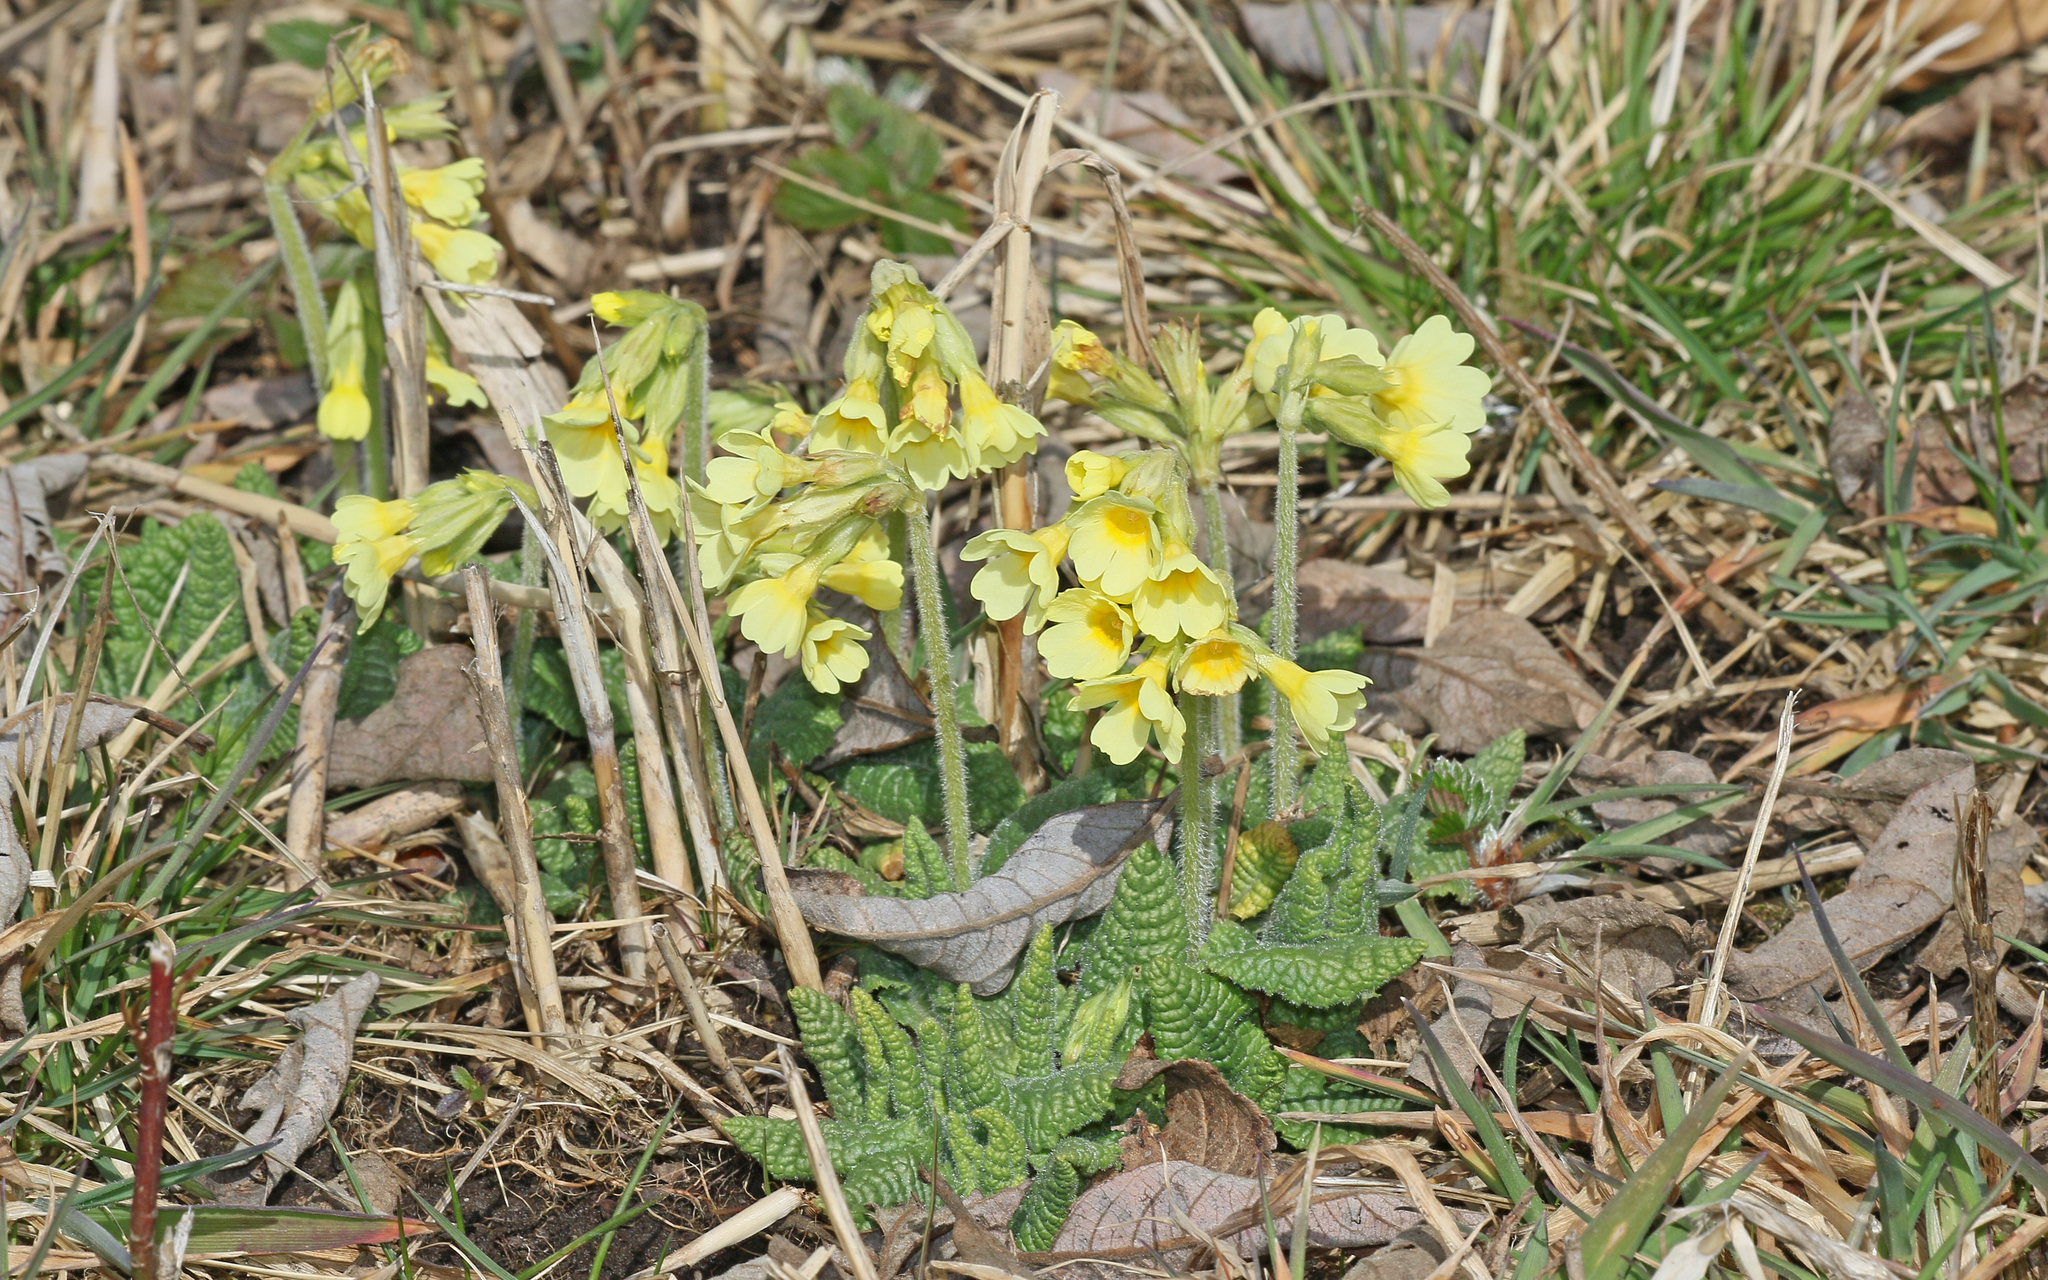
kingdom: Plantae
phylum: Tracheophyta
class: Magnoliopsida
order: Ericales
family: Primulaceae
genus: Primula
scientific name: Primula elatior
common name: Oxlip
